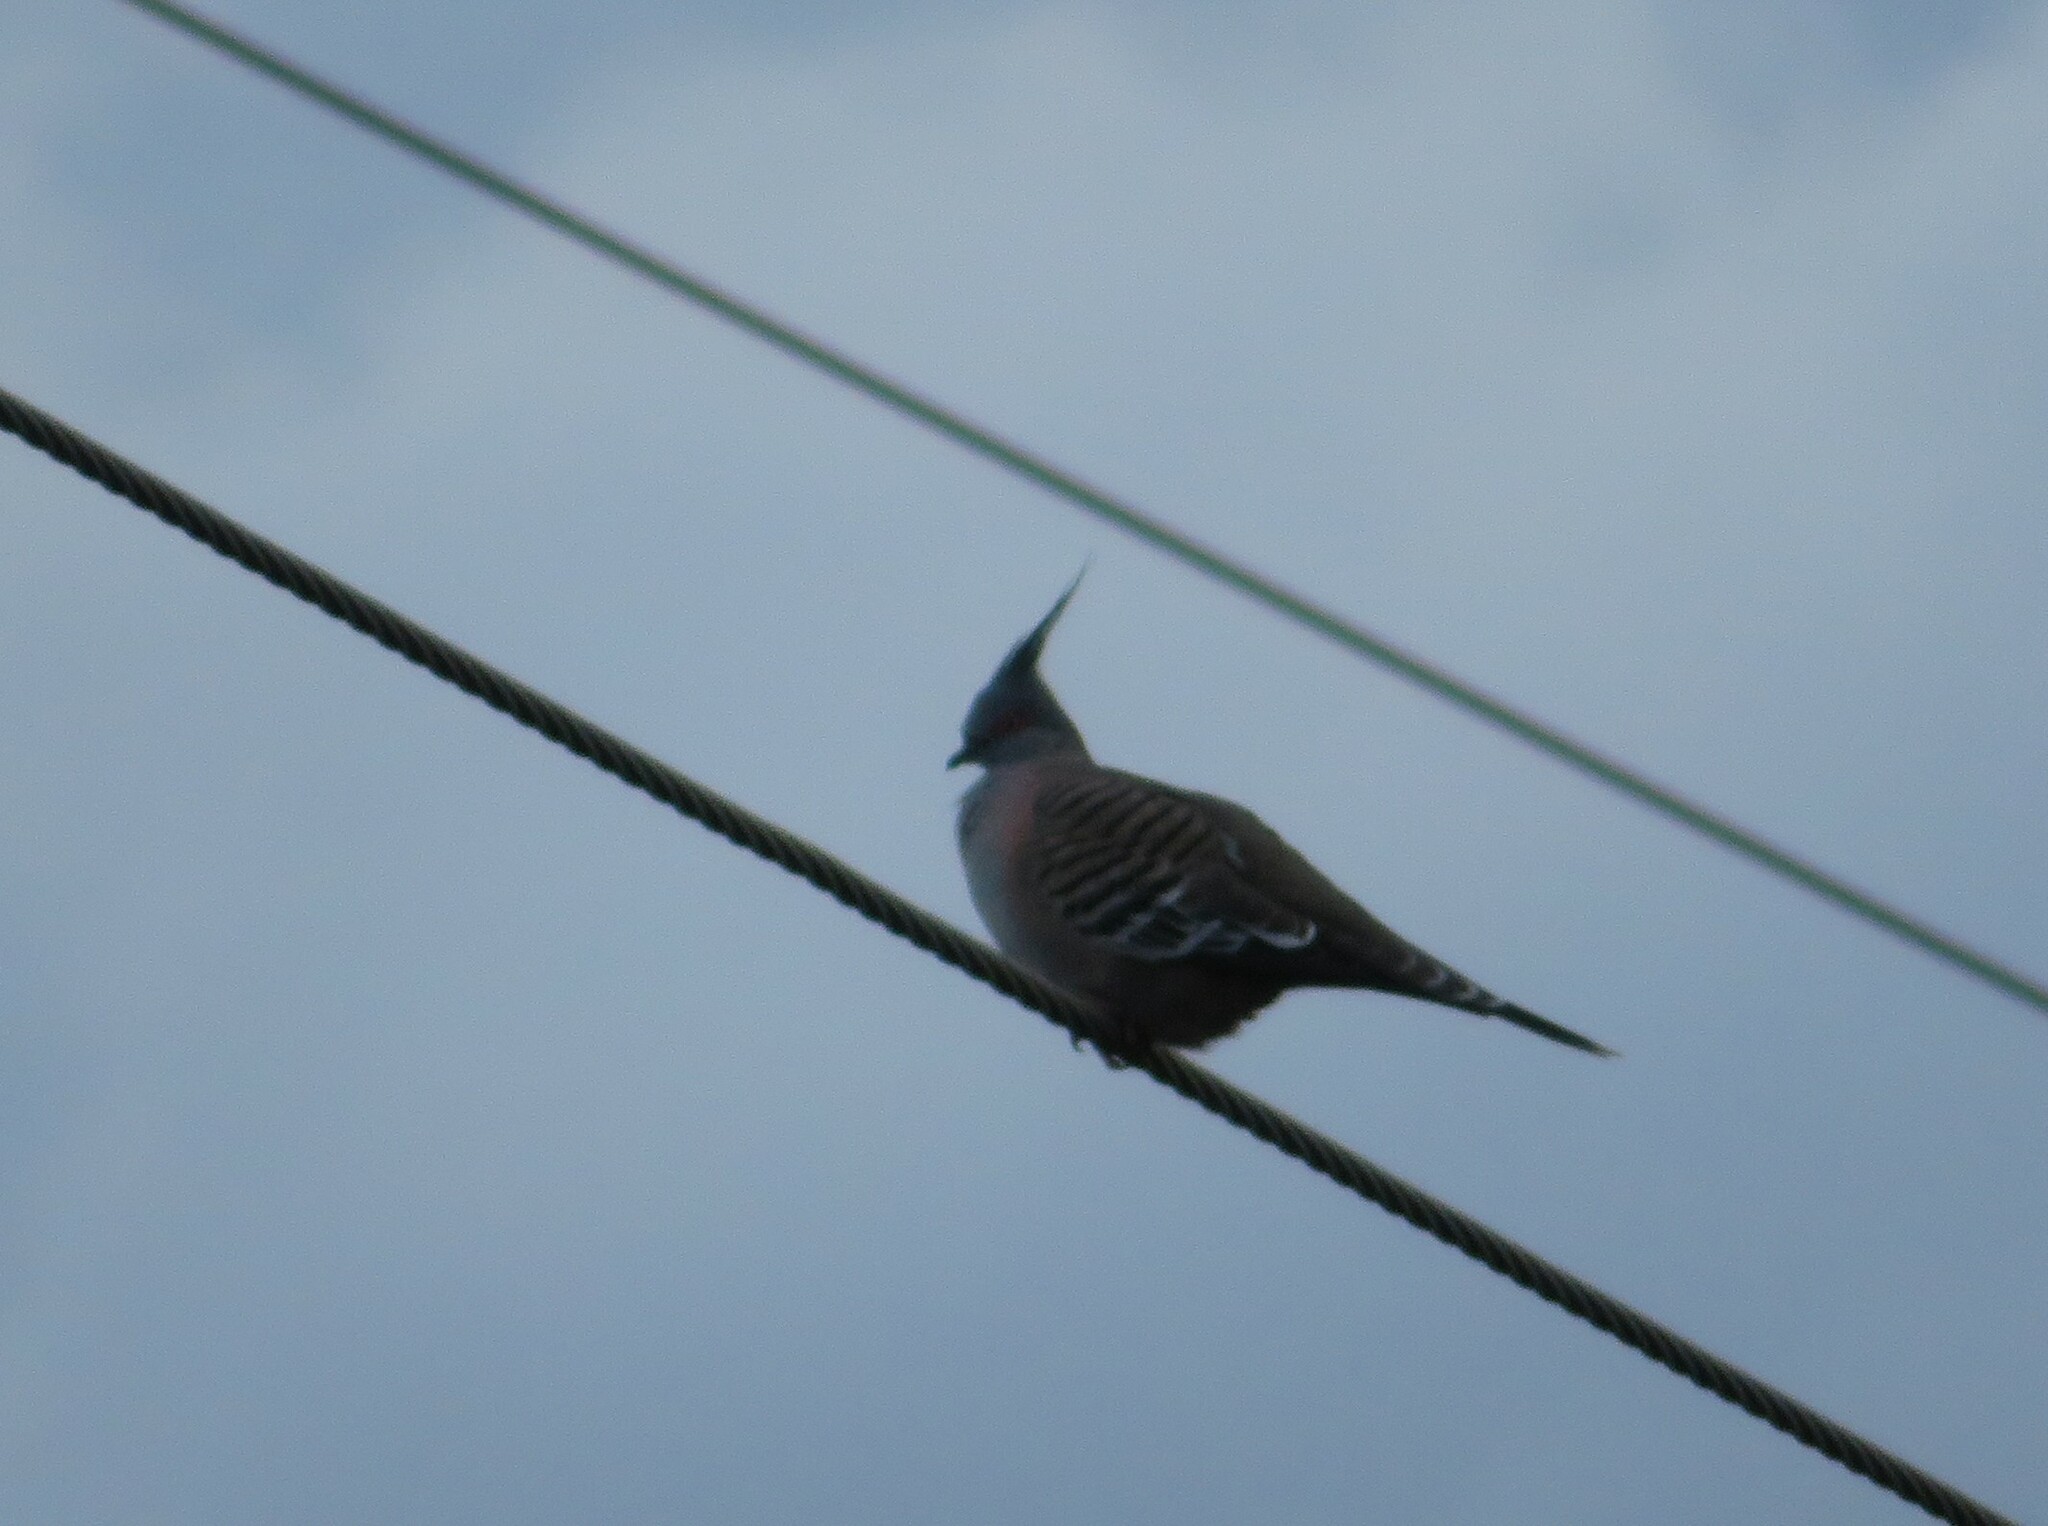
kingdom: Animalia
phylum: Chordata
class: Aves
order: Columbiformes
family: Columbidae
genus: Ocyphaps
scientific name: Ocyphaps lophotes
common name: Crested pigeon
